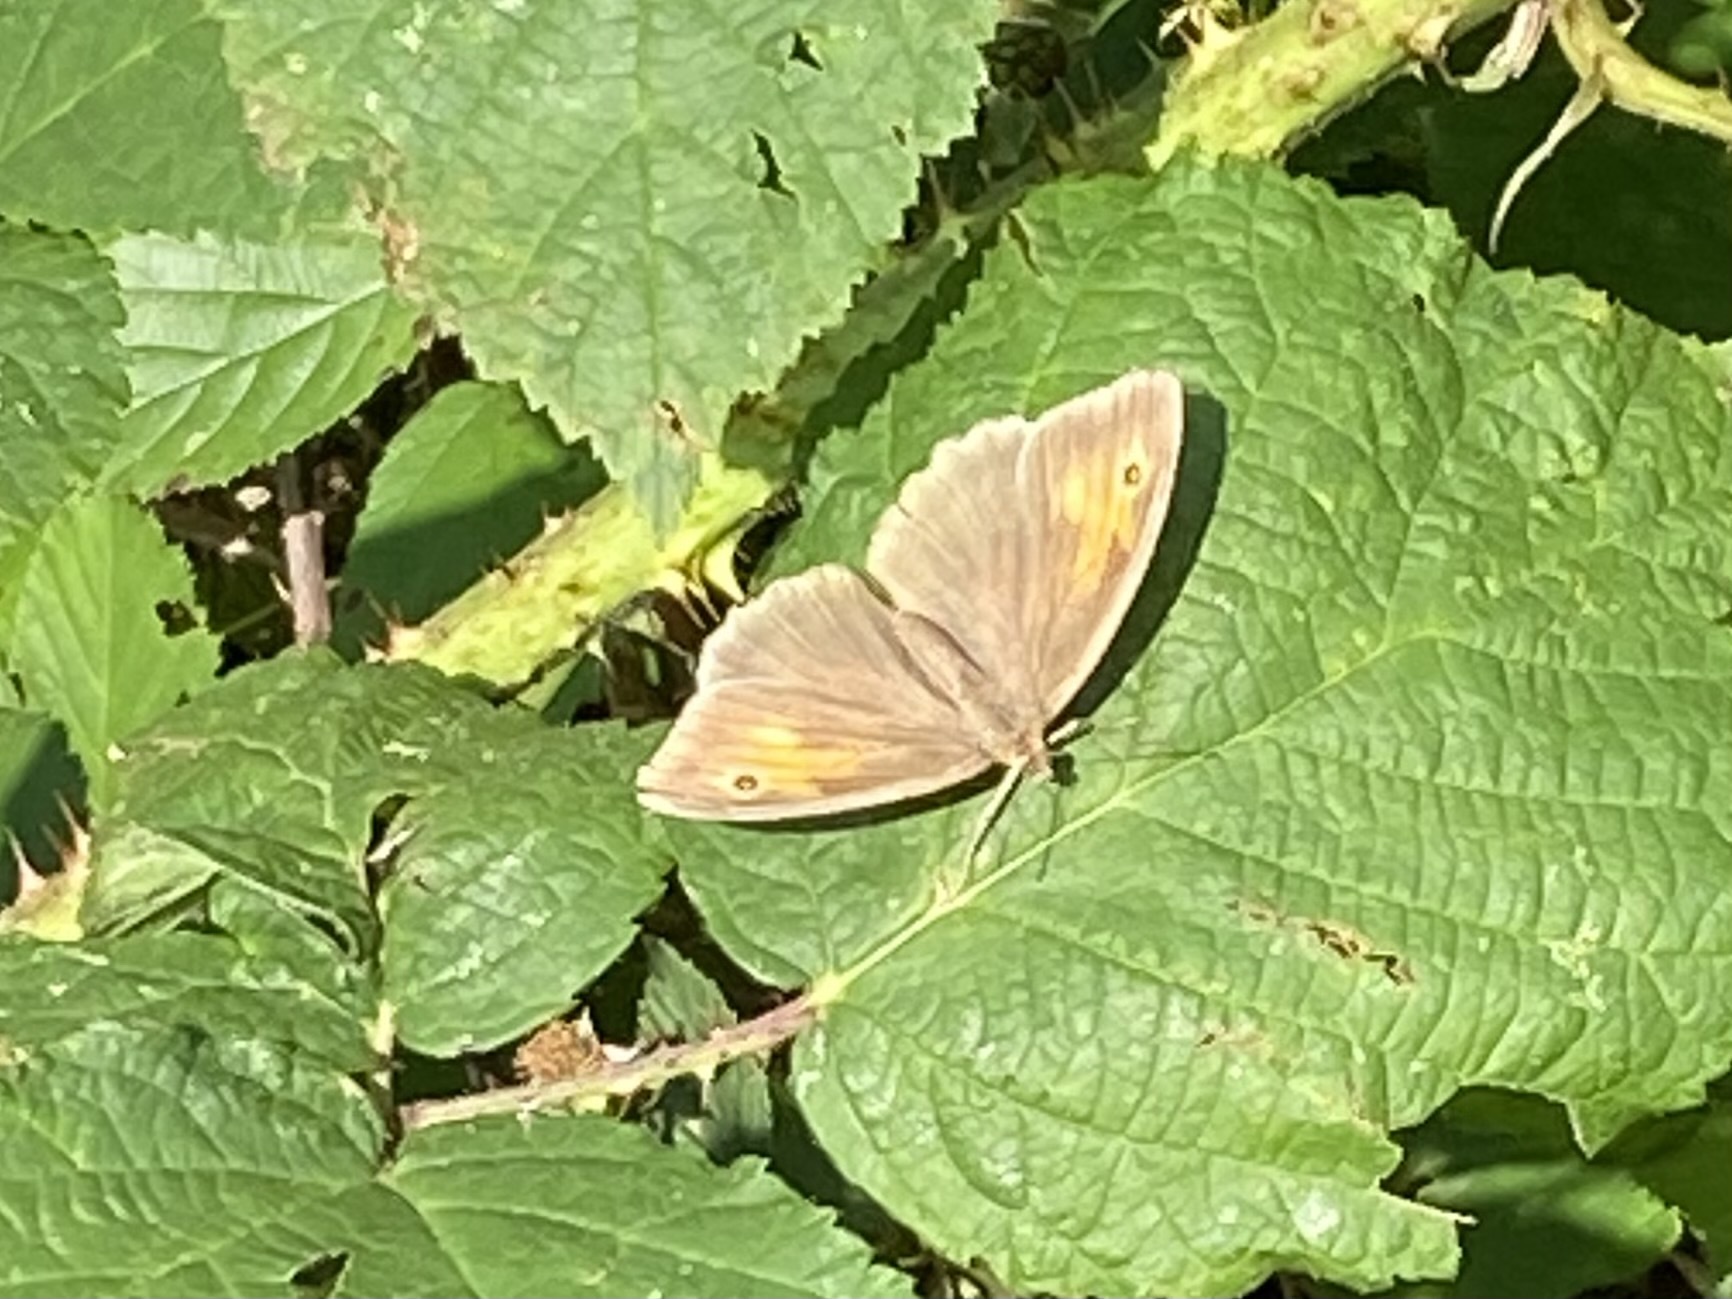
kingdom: Animalia
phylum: Arthropoda
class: Insecta
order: Lepidoptera
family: Nymphalidae
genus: Maniola
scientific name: Maniola jurtina
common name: Meadow brown
